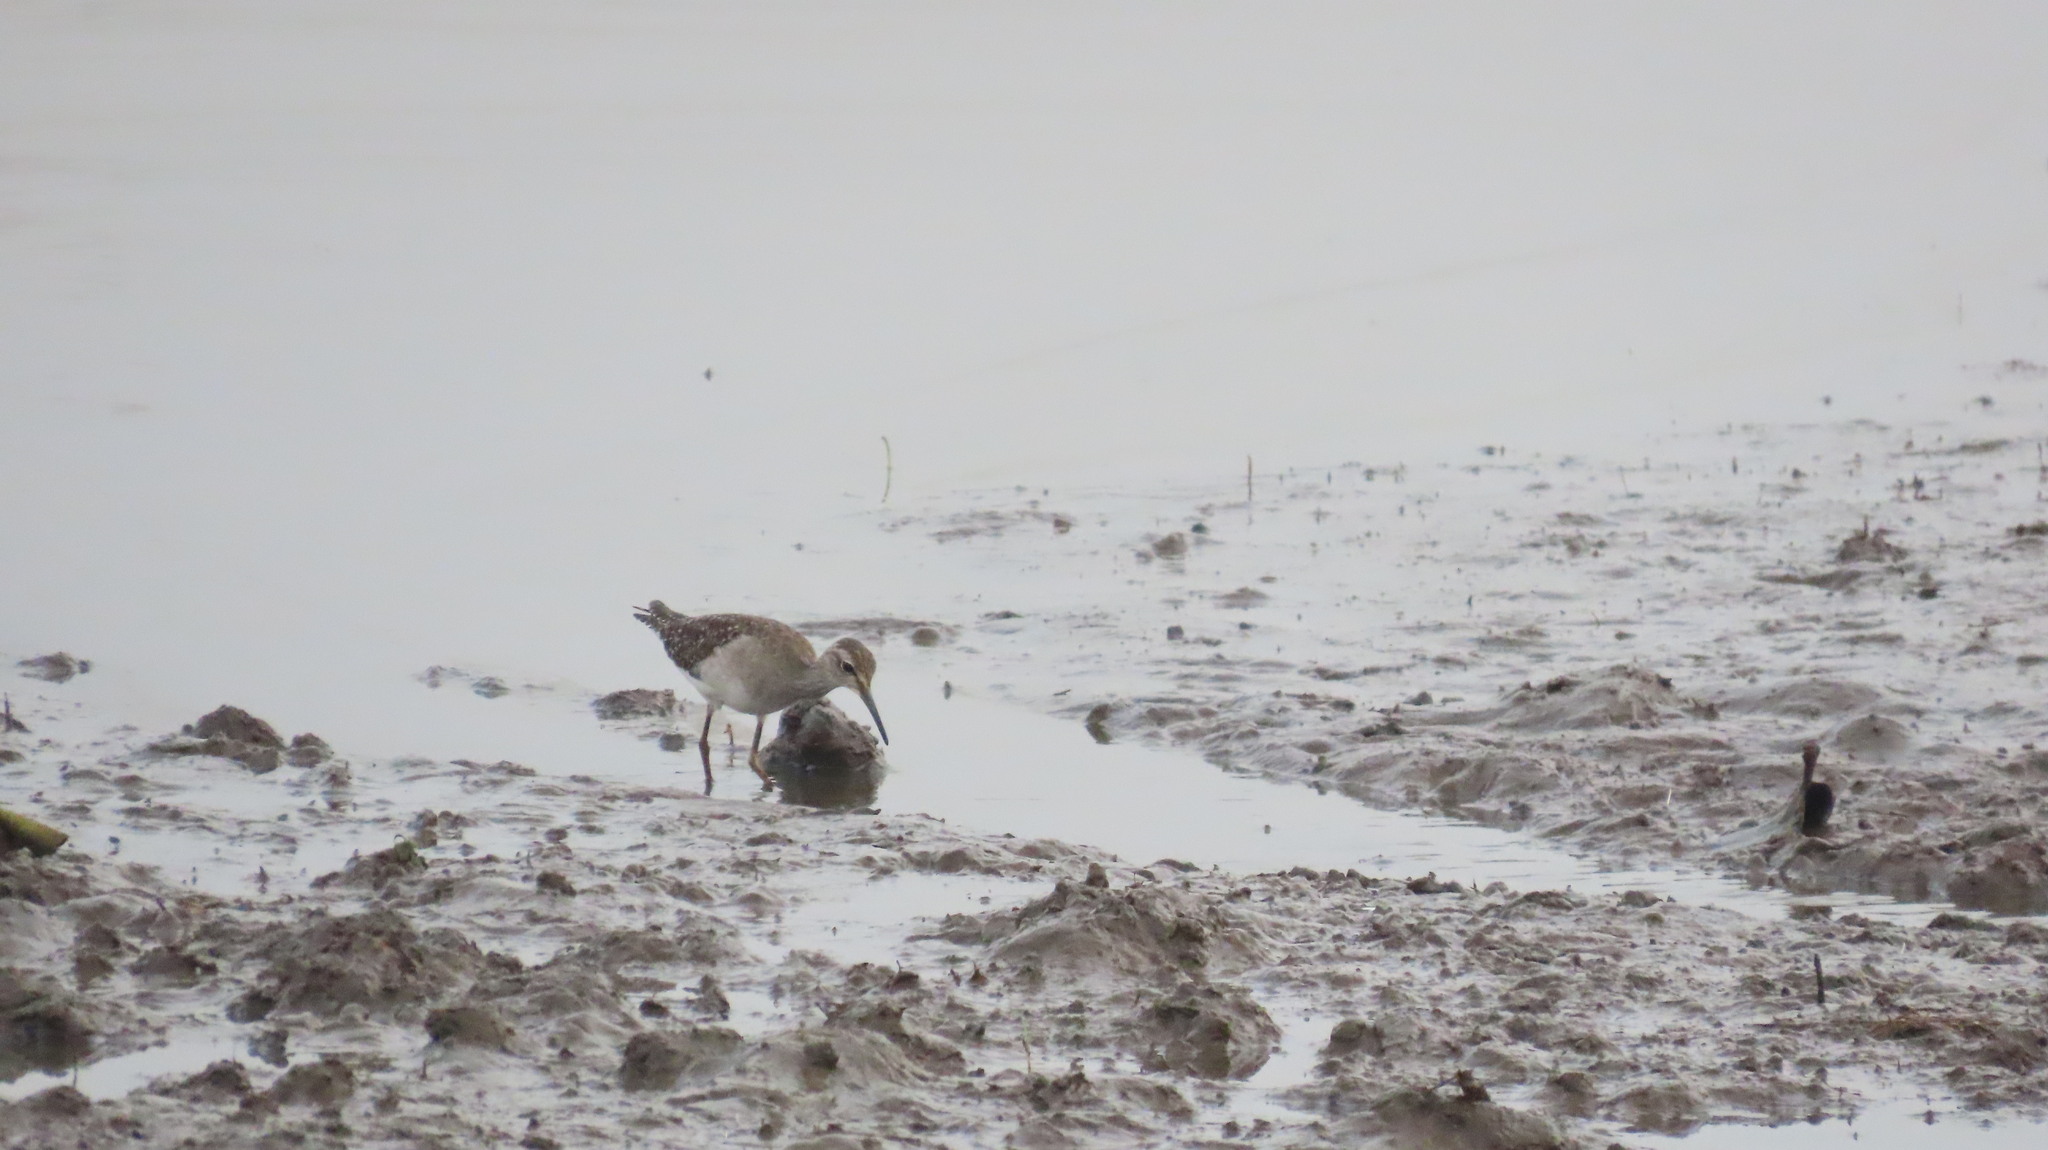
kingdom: Animalia
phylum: Chordata
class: Aves
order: Charadriiformes
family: Scolopacidae
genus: Tringa
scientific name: Tringa glareola
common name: Wood sandpiper
